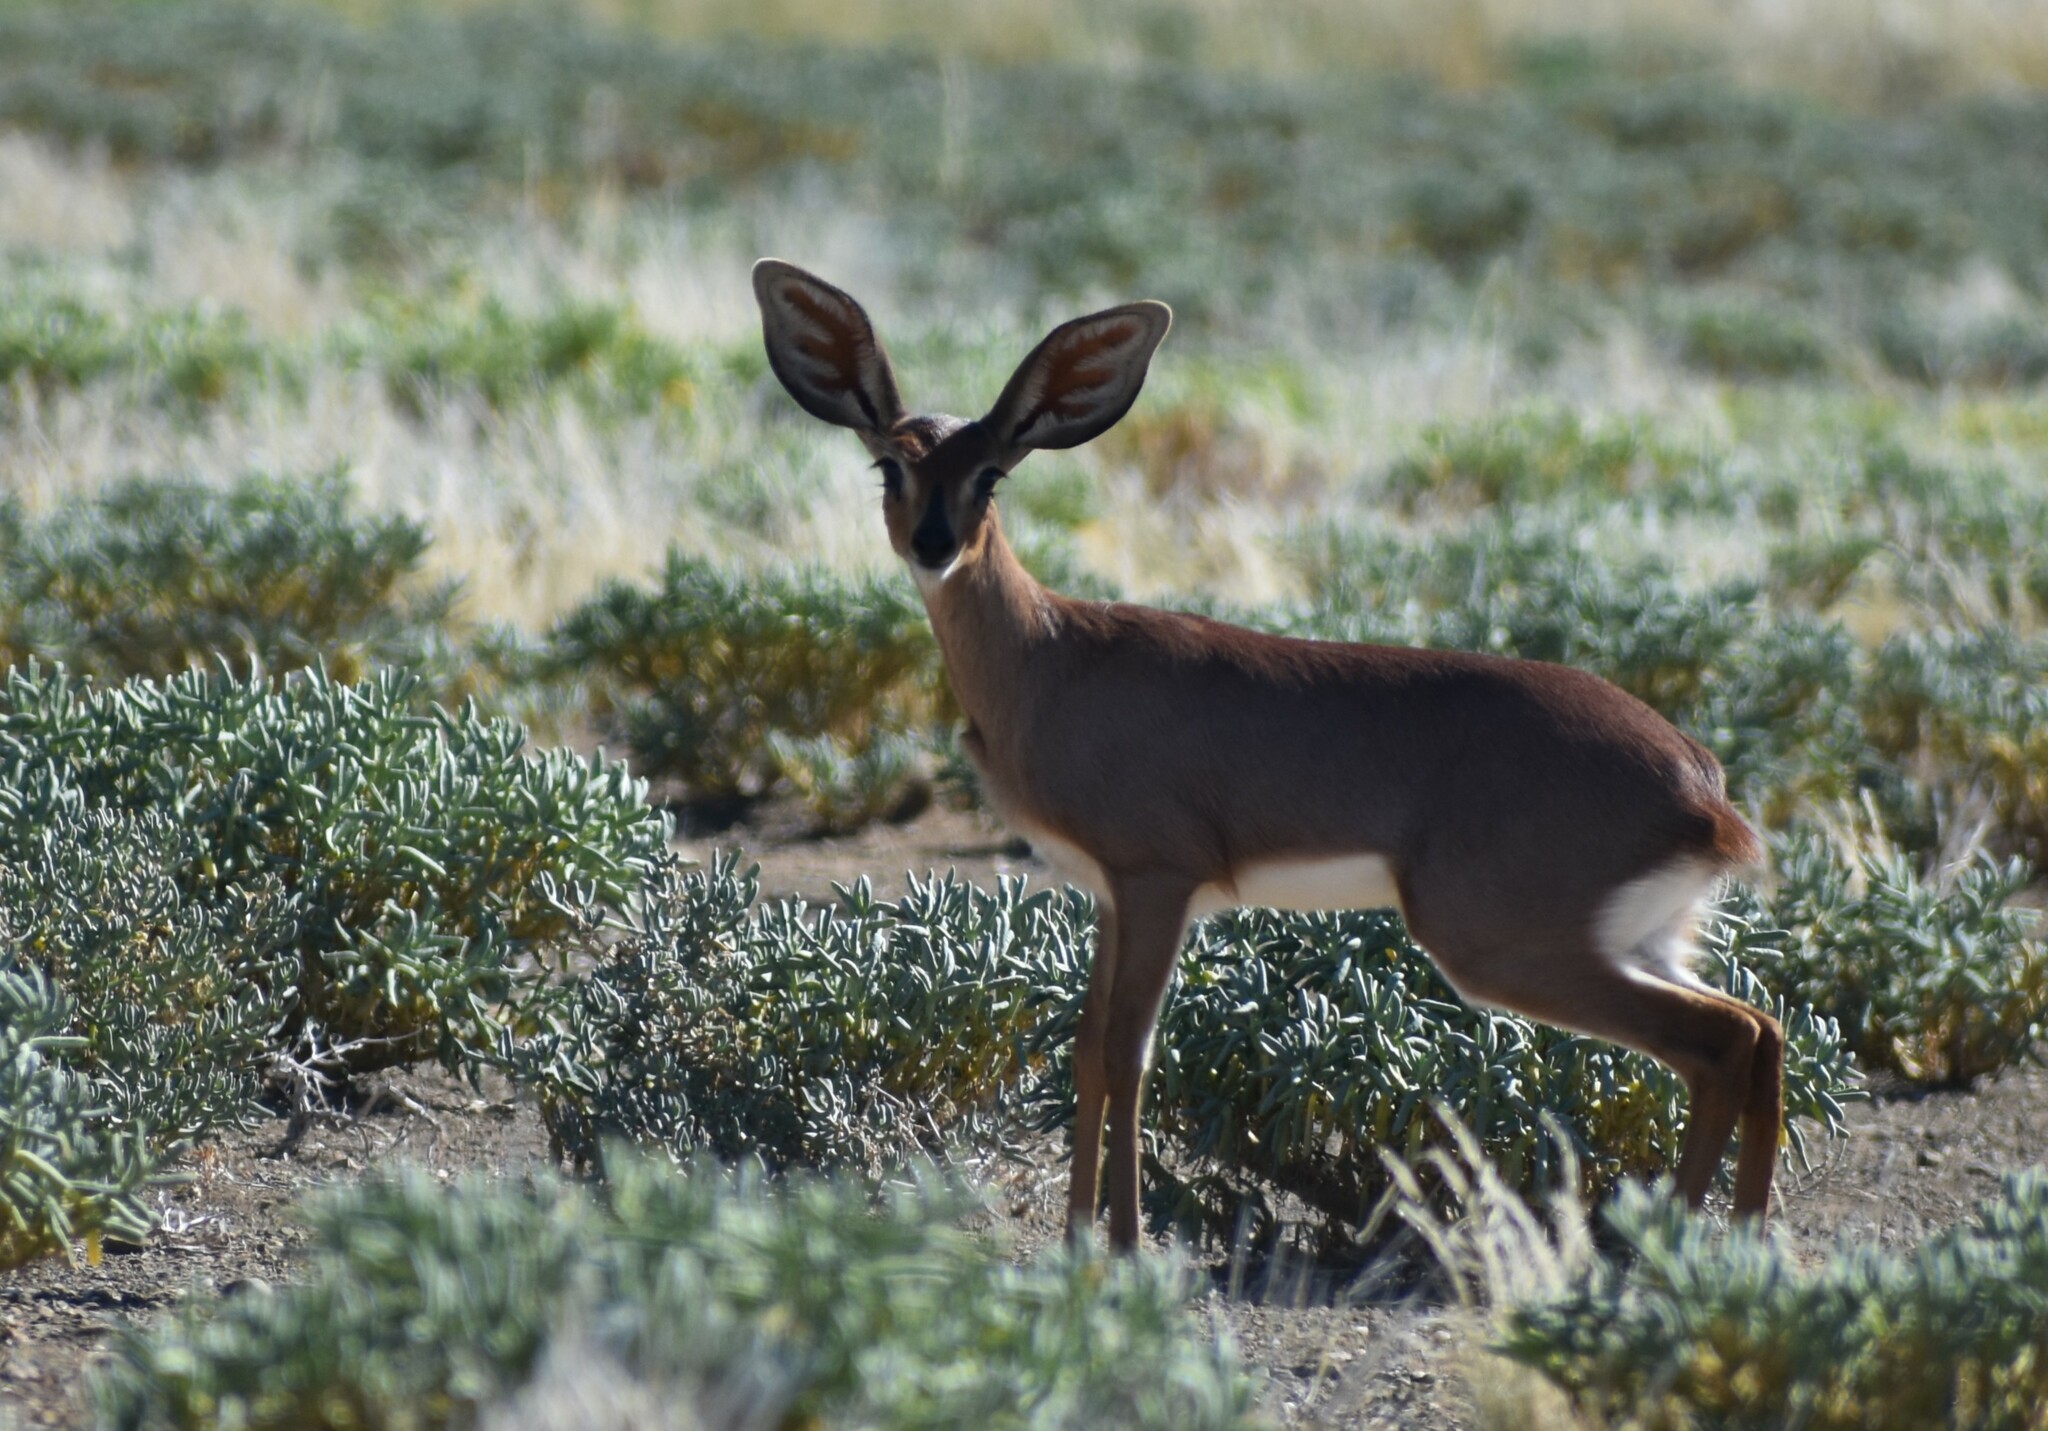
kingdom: Animalia
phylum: Chordata
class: Mammalia
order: Artiodactyla
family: Bovidae
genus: Raphicerus
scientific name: Raphicerus campestris
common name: Steenbok
